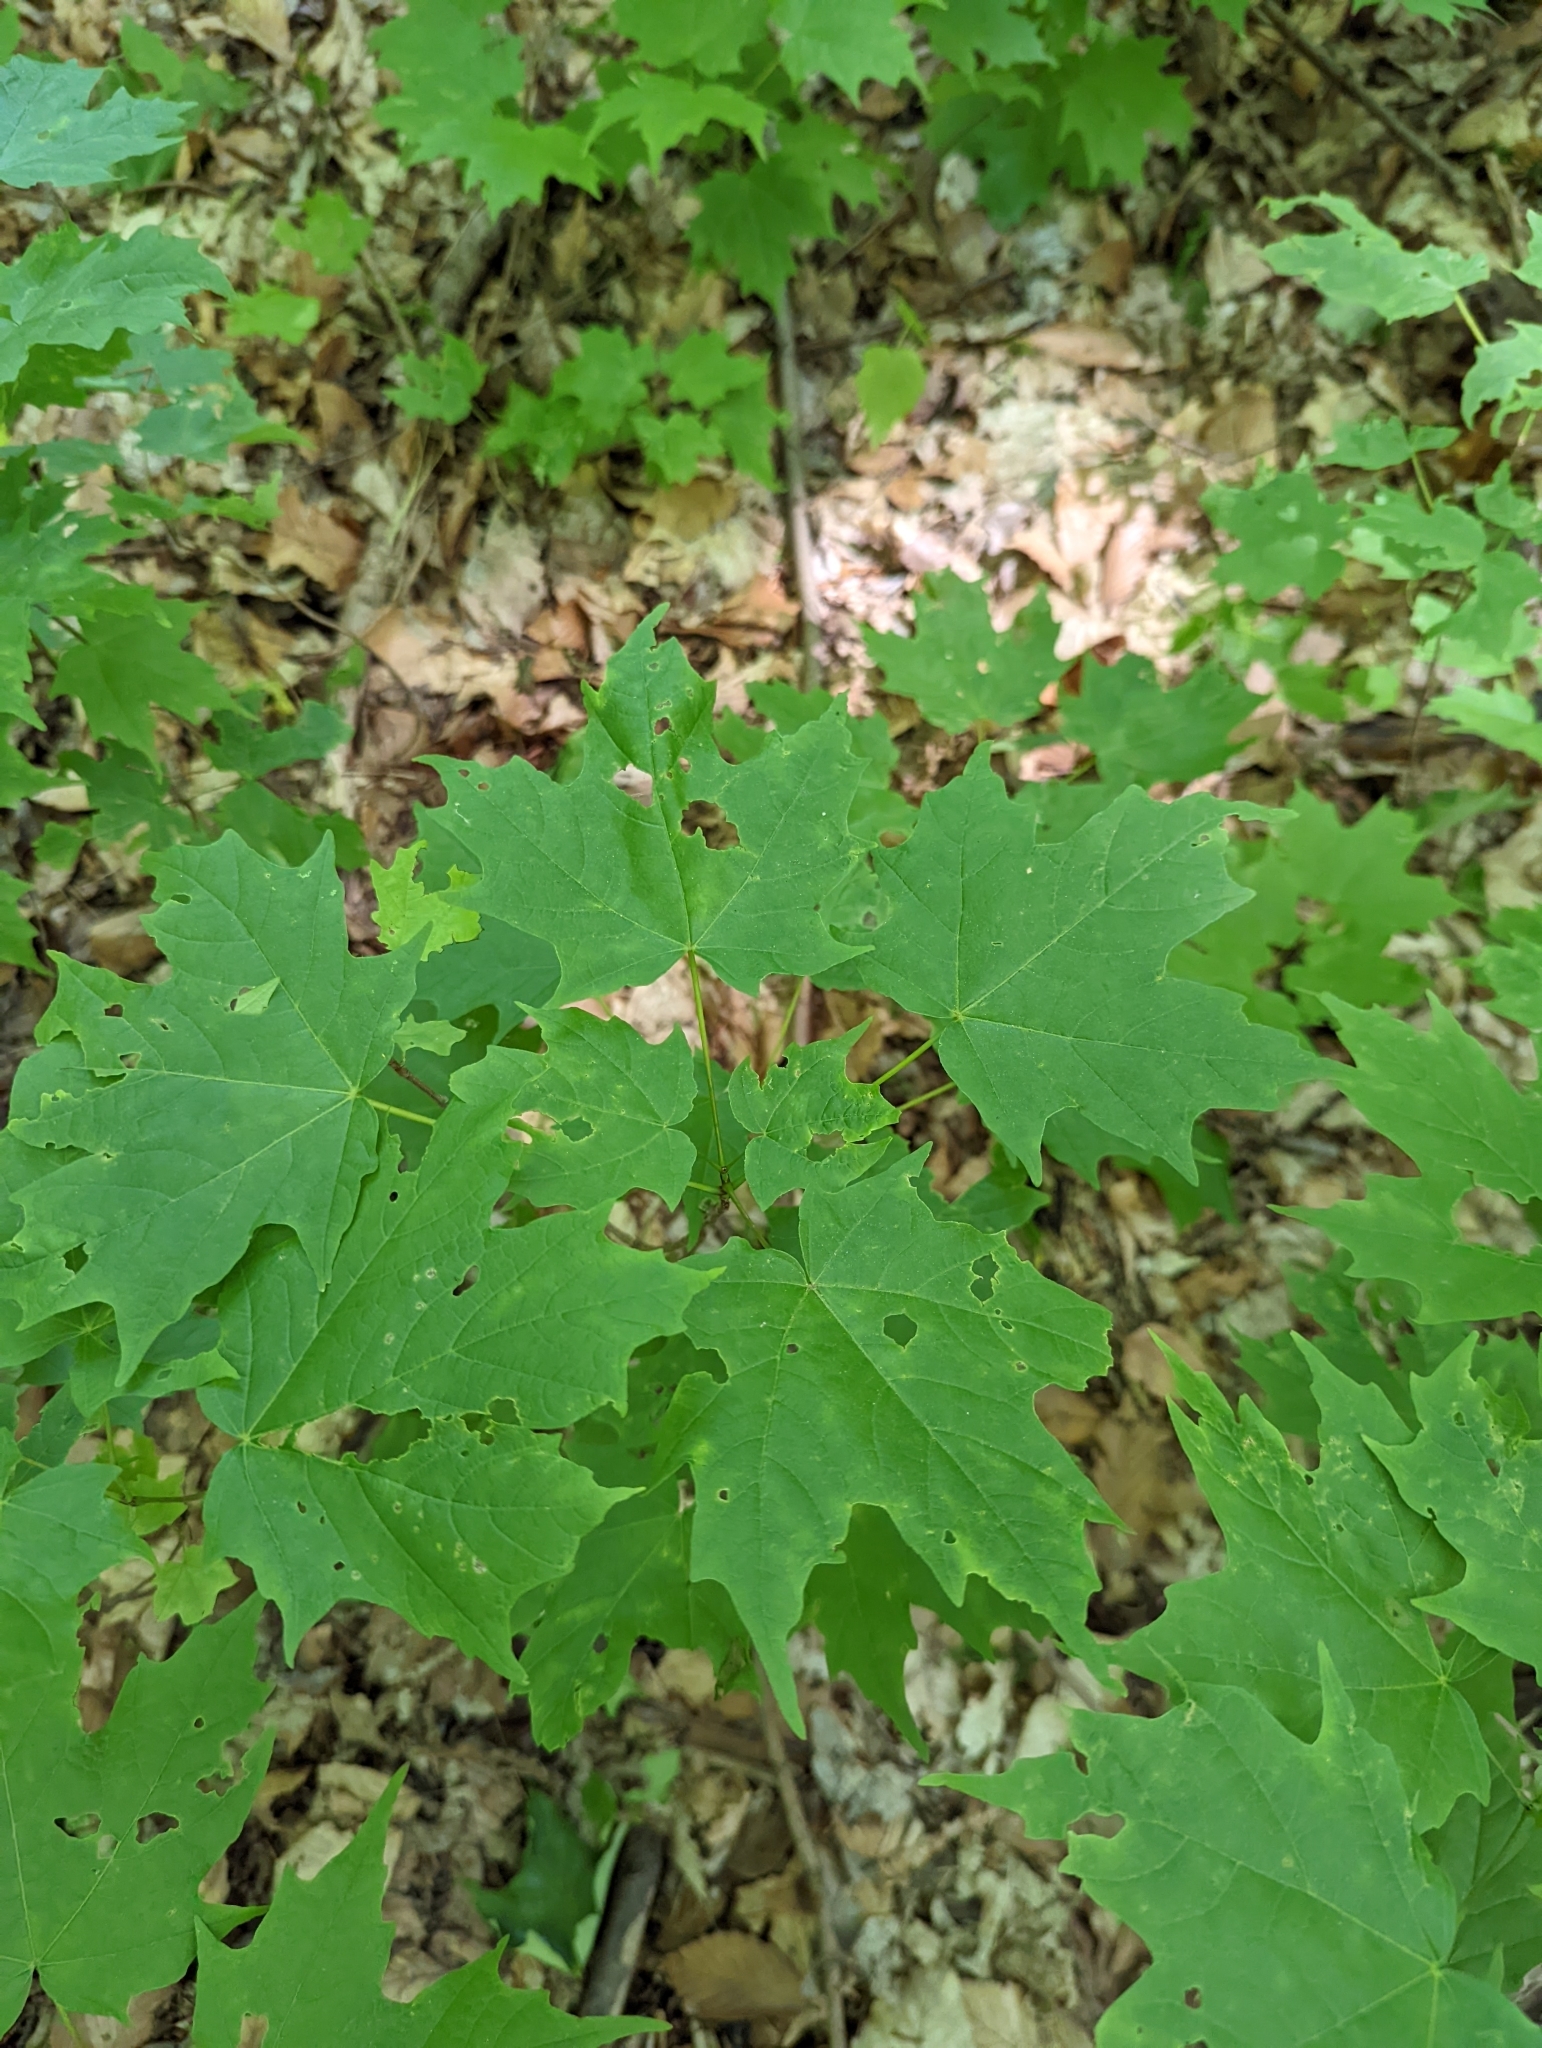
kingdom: Plantae
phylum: Tracheophyta
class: Magnoliopsida
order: Sapindales
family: Sapindaceae
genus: Acer
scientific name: Acer saccharum
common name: Sugar maple
